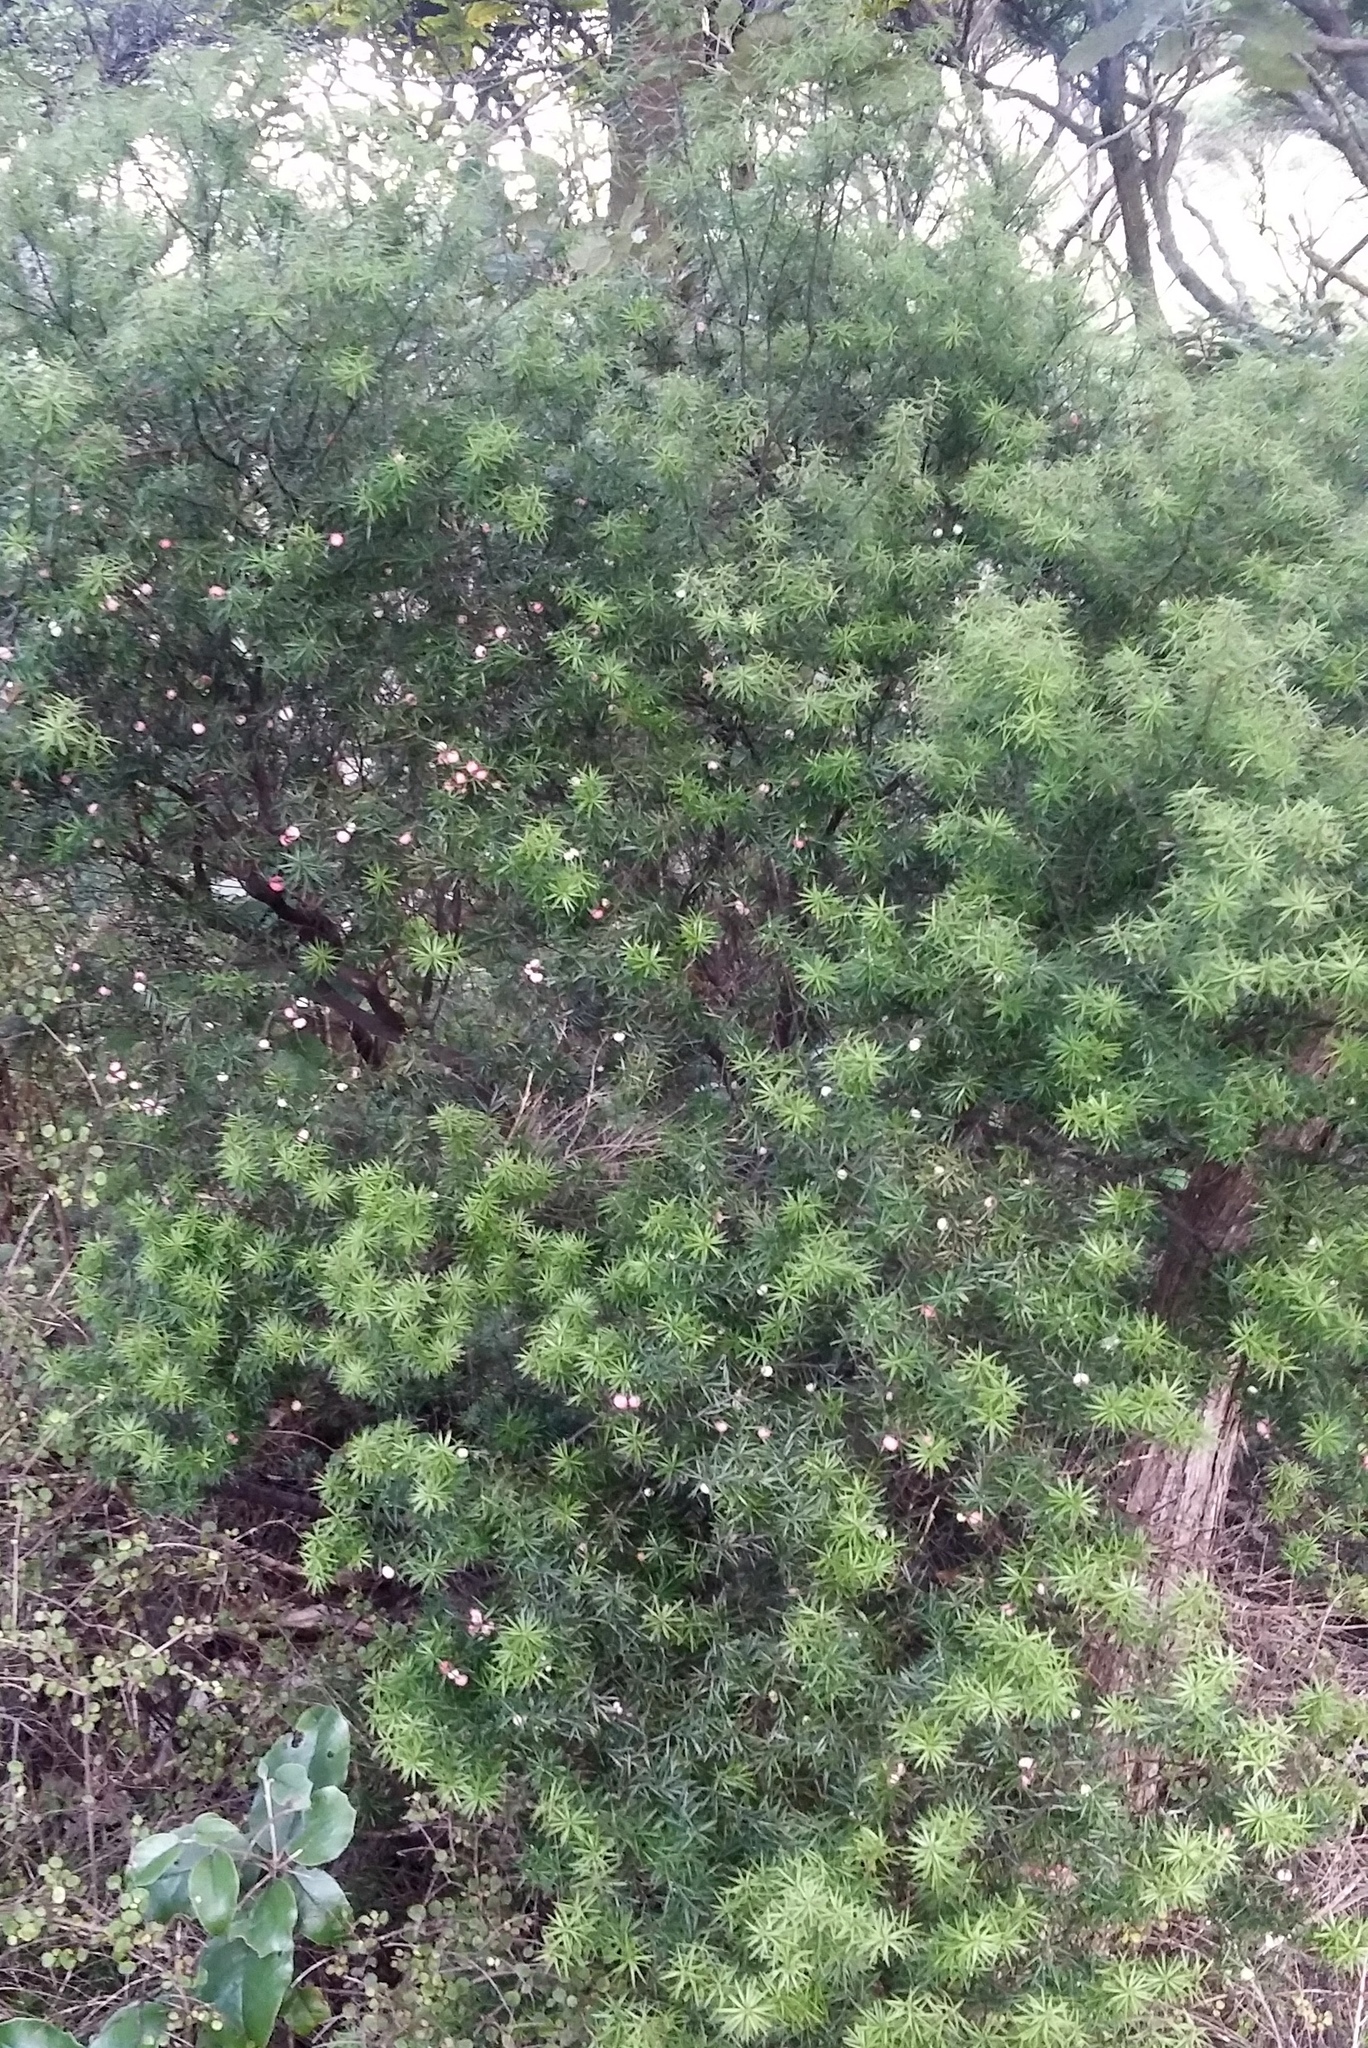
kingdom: Plantae
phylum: Tracheophyta
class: Magnoliopsida
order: Ericales
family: Ericaceae
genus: Leptecophylla
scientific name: Leptecophylla juniperina
